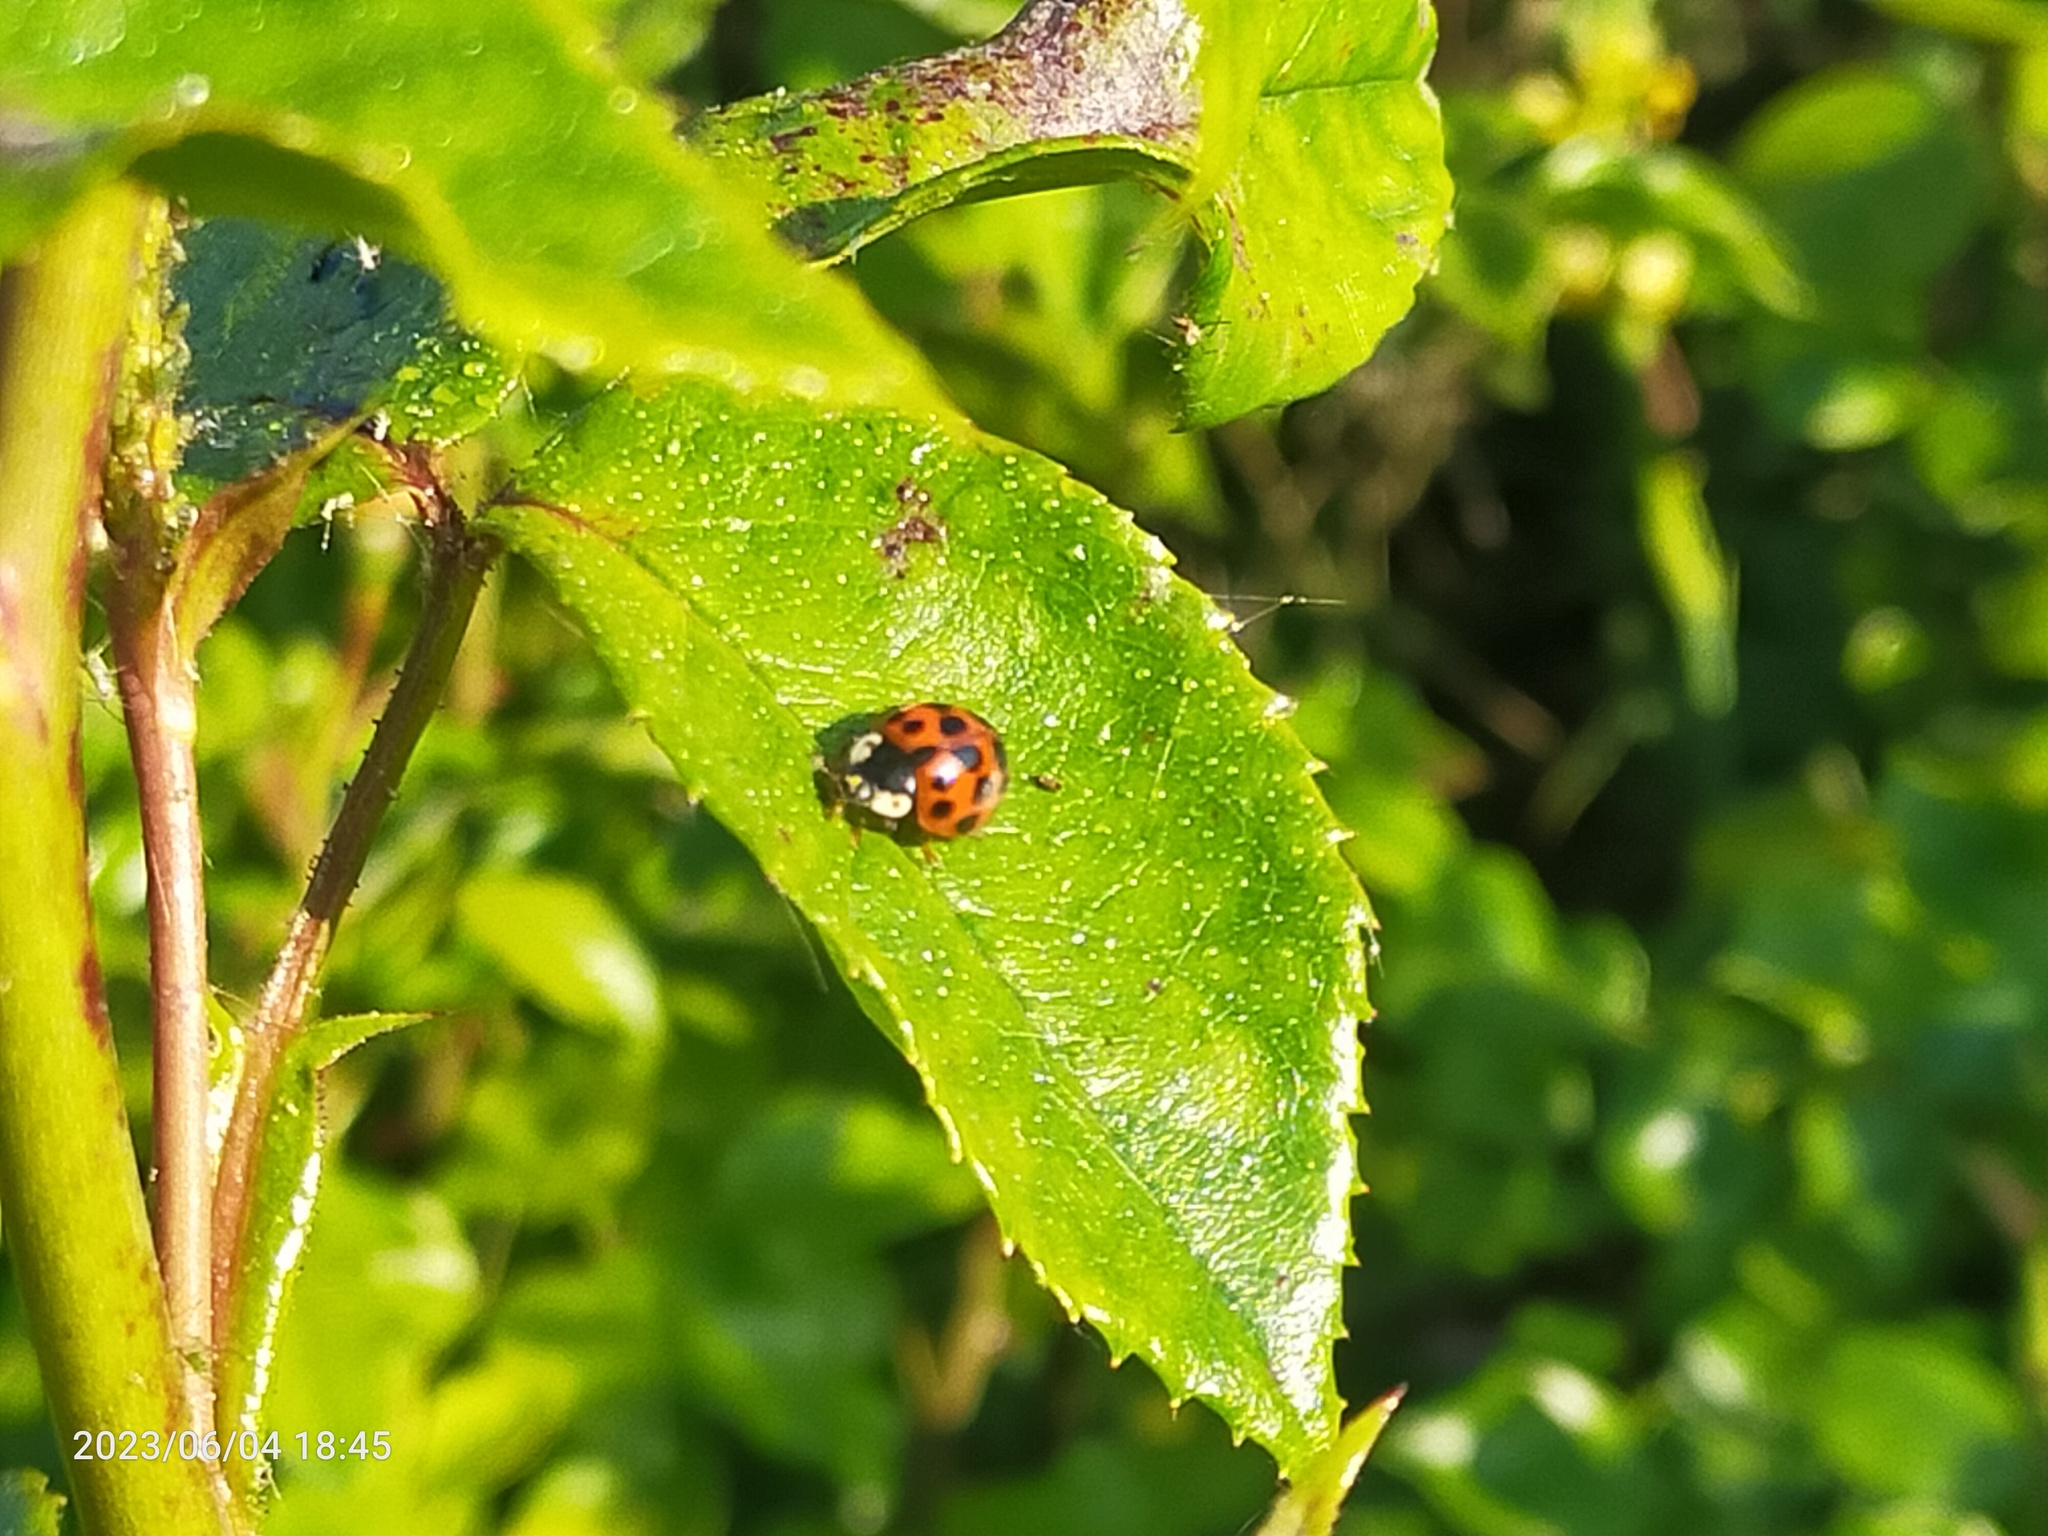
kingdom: Animalia
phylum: Arthropoda
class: Insecta
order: Coleoptera
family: Coccinellidae
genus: Harmonia
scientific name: Harmonia axyridis
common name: Harlequin ladybird
